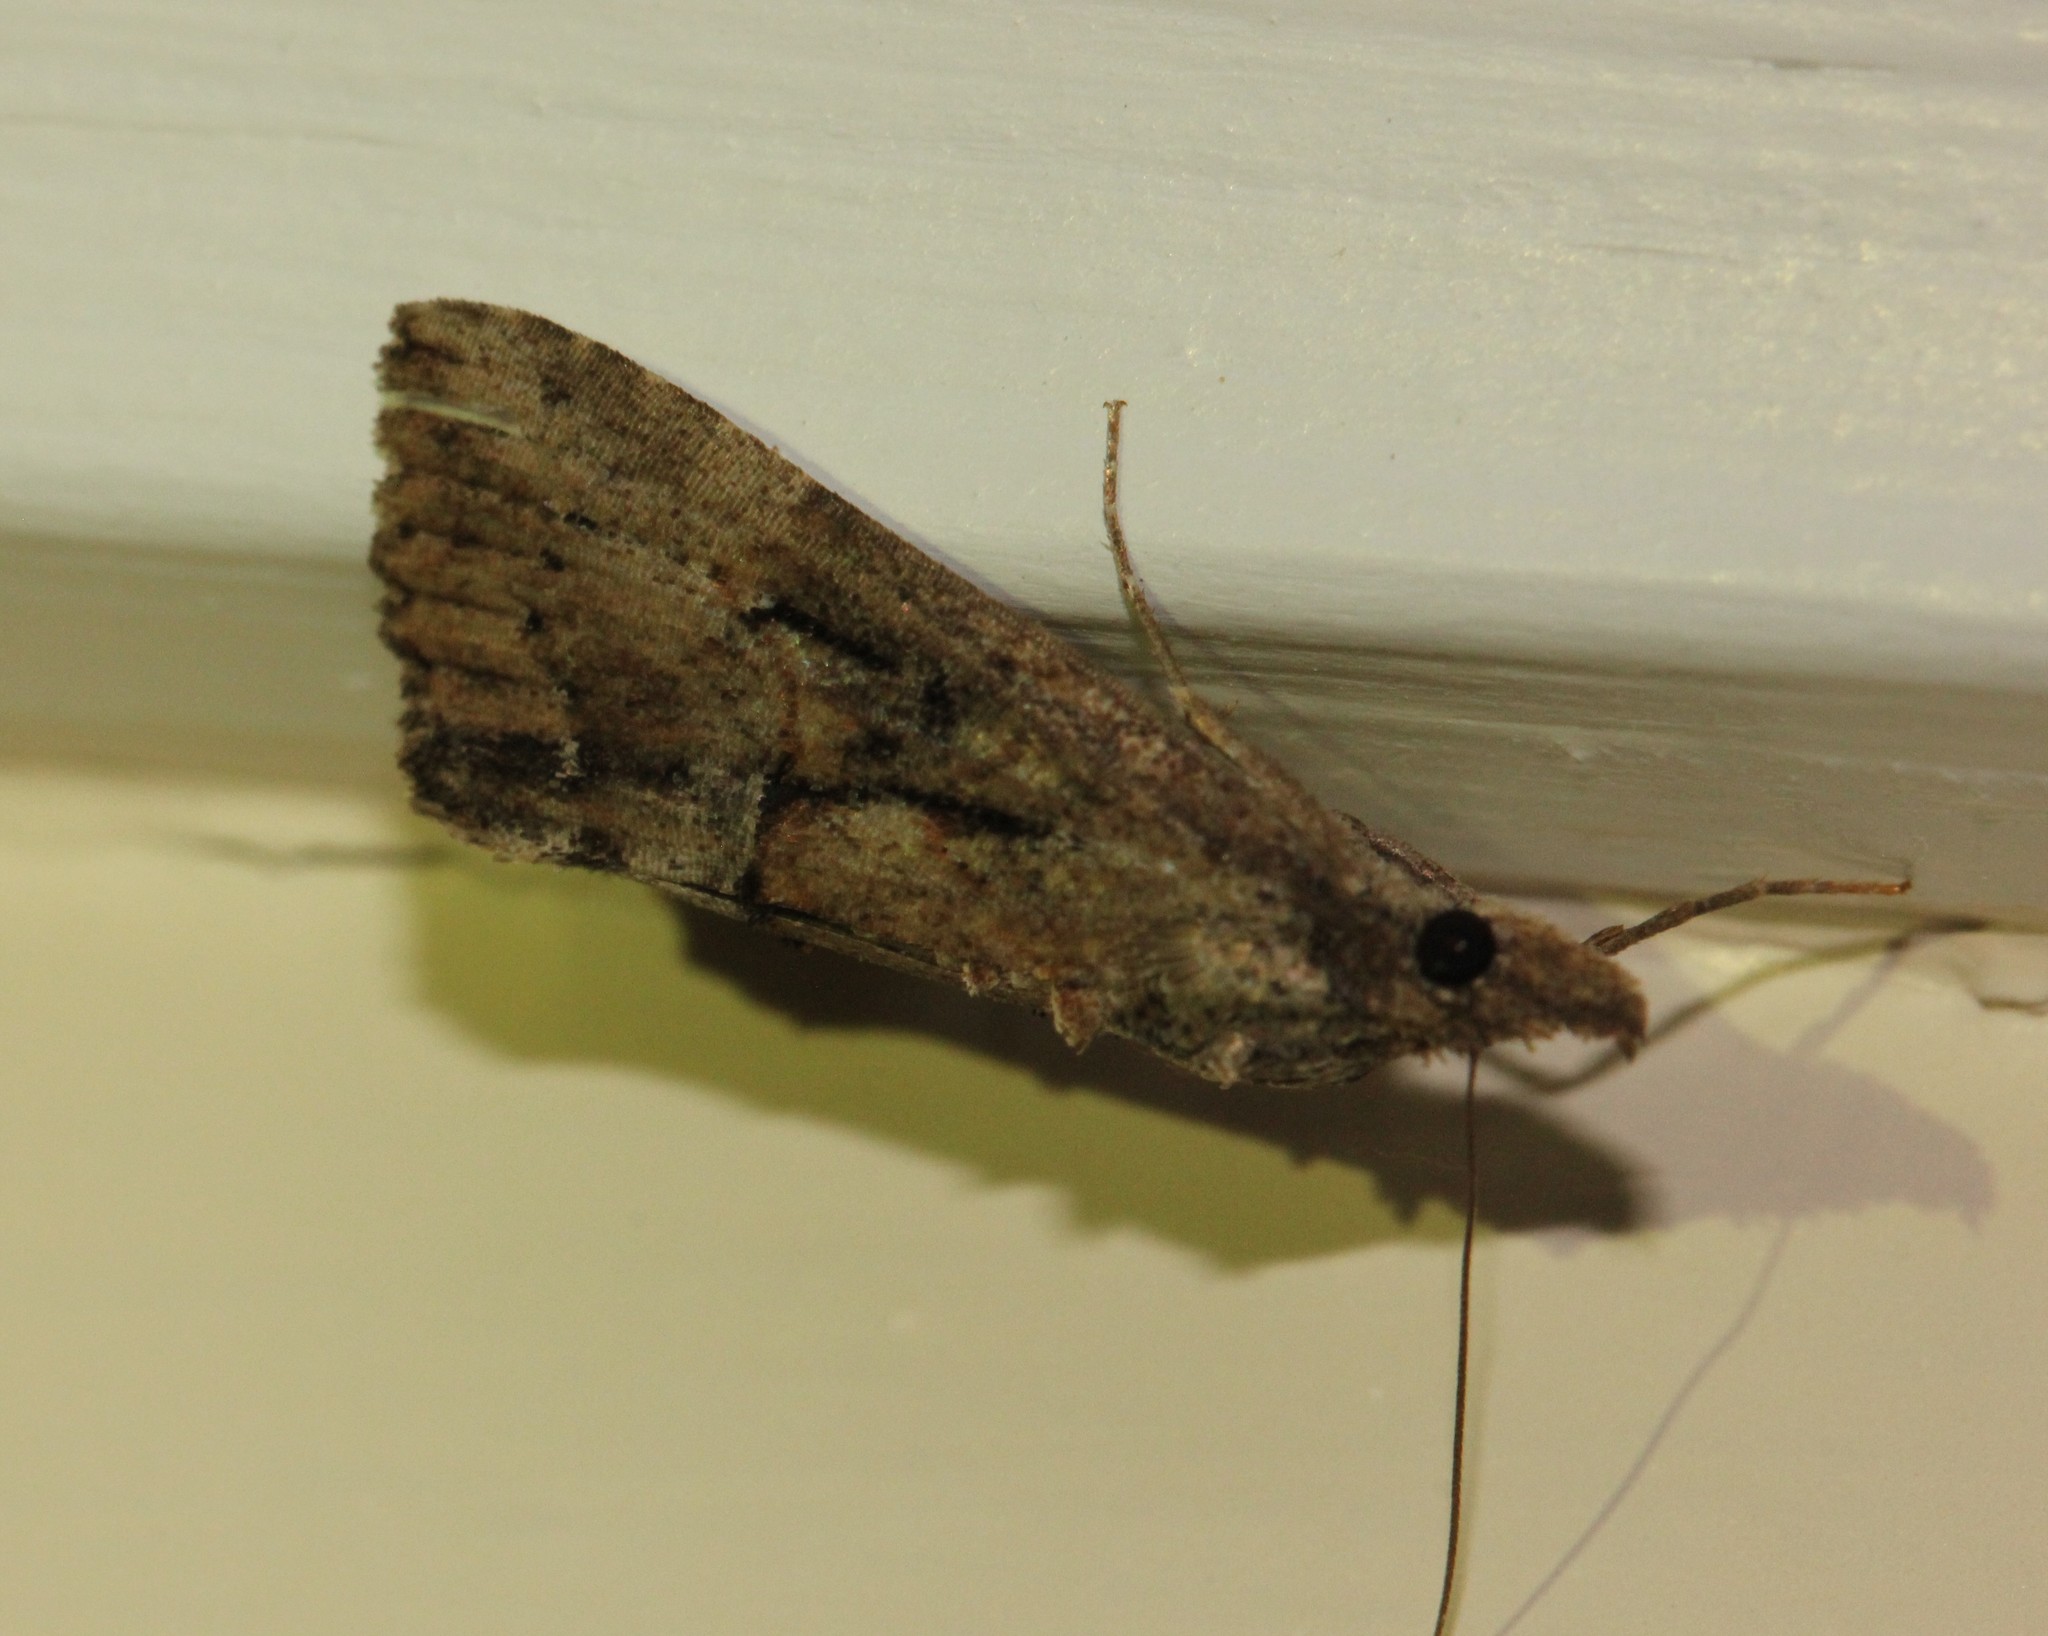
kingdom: Animalia
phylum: Arthropoda
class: Insecta
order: Lepidoptera
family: Erebidae
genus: Hypena
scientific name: Hypena scabra
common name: Green cloverworm
